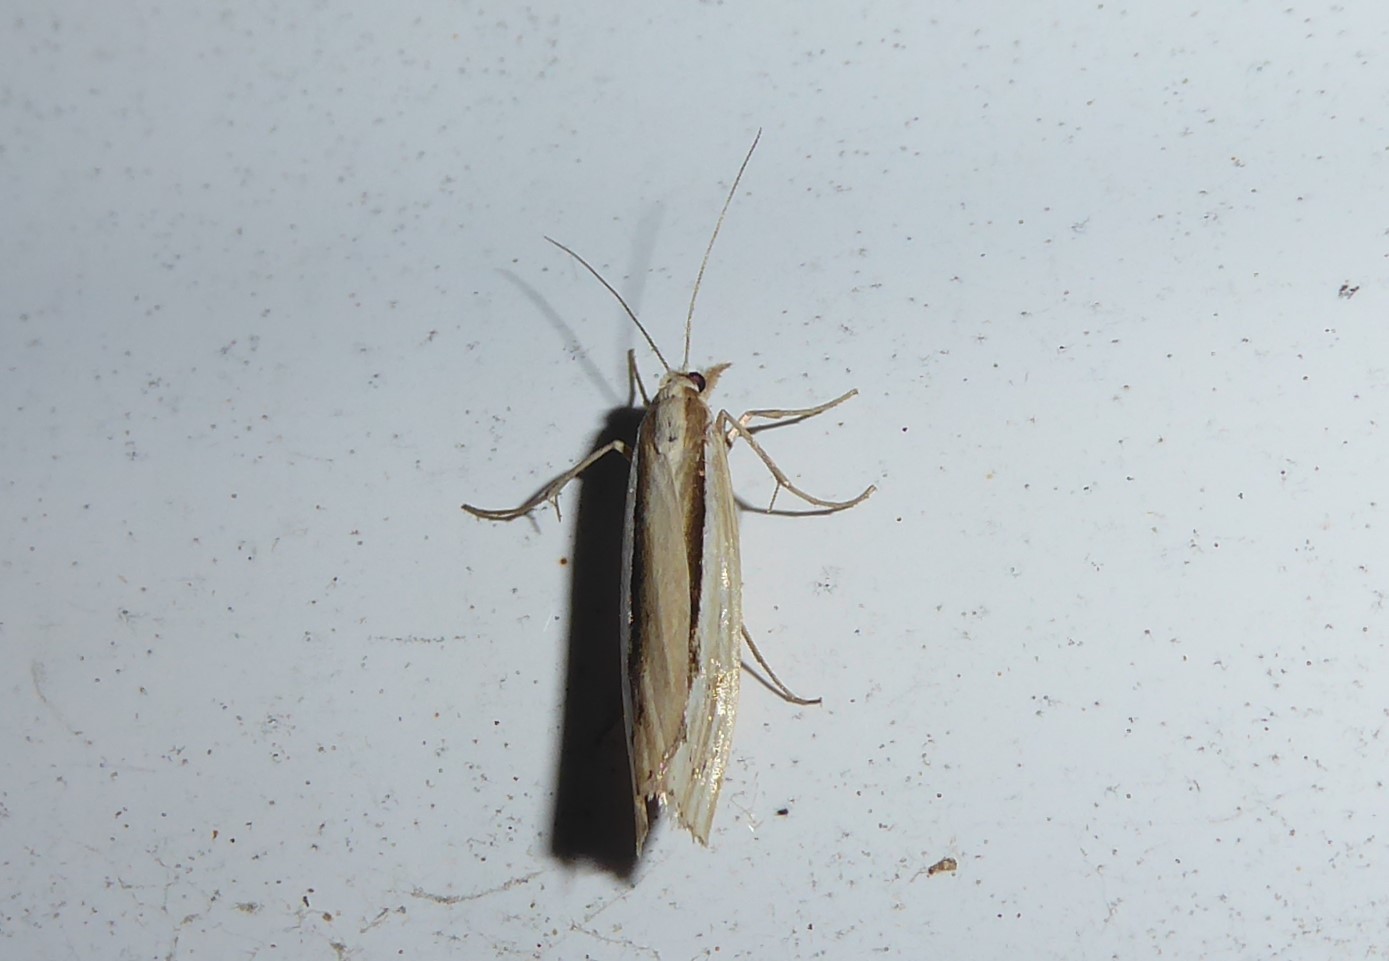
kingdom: Animalia
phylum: Arthropoda
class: Insecta
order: Lepidoptera
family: Crambidae
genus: Orocrambus
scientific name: Orocrambus ramosellus
